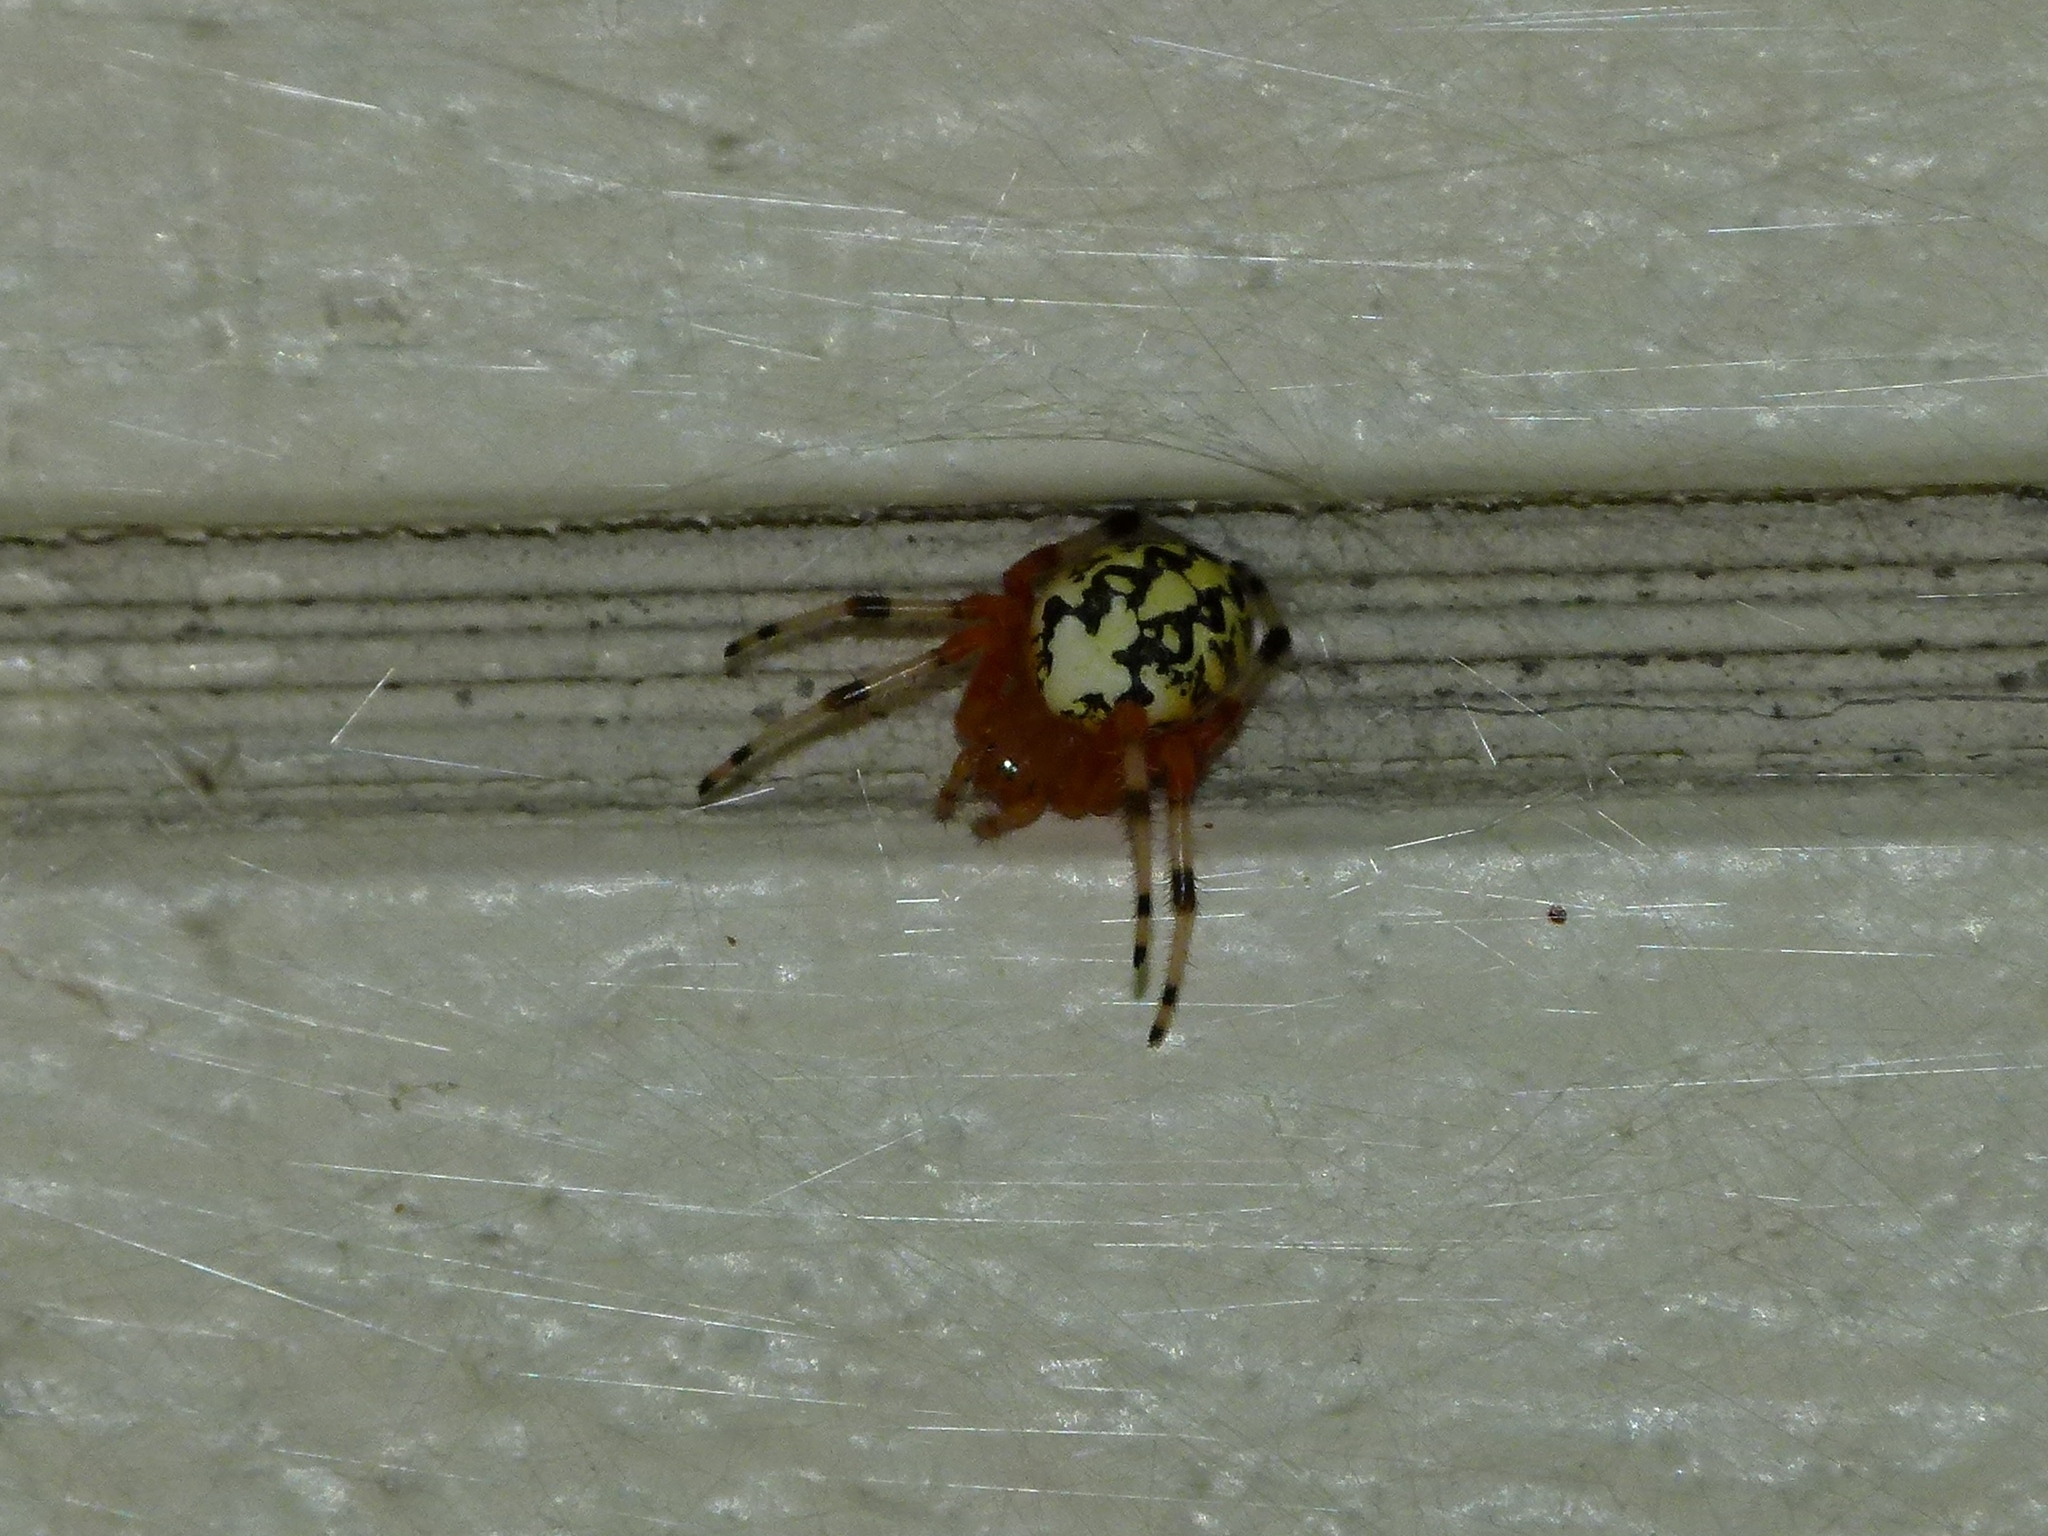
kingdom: Animalia
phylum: Arthropoda
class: Arachnida
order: Araneae
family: Araneidae
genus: Araneus
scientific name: Araneus marmoreus
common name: Marbled orbweaver
